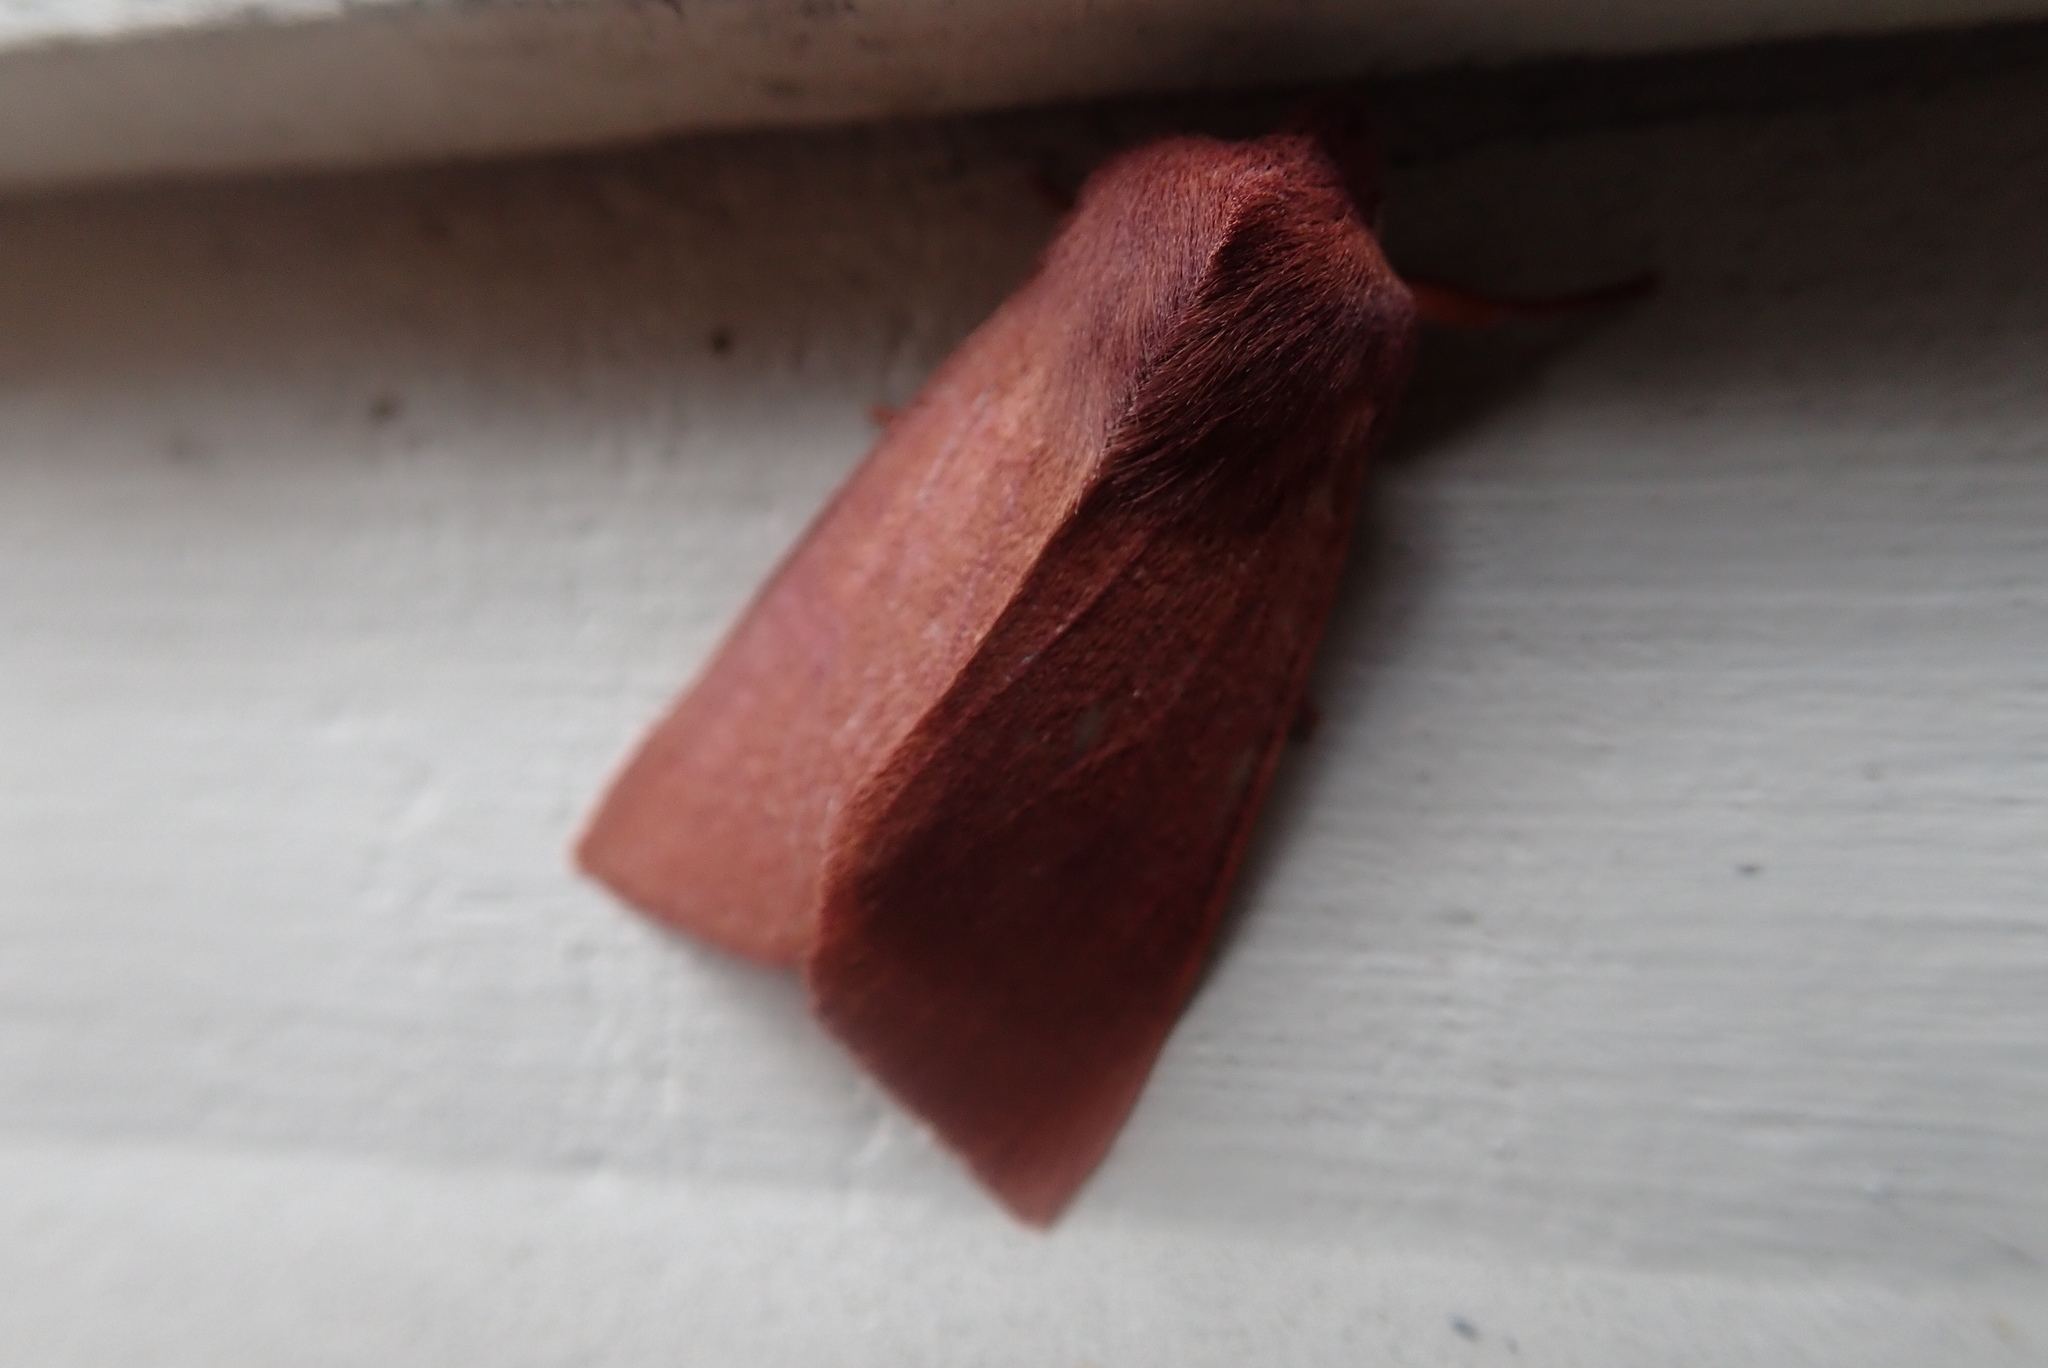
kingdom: Animalia
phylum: Arthropoda
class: Insecta
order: Lepidoptera
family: Noctuidae
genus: Orthosia
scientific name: Orthosia mys
